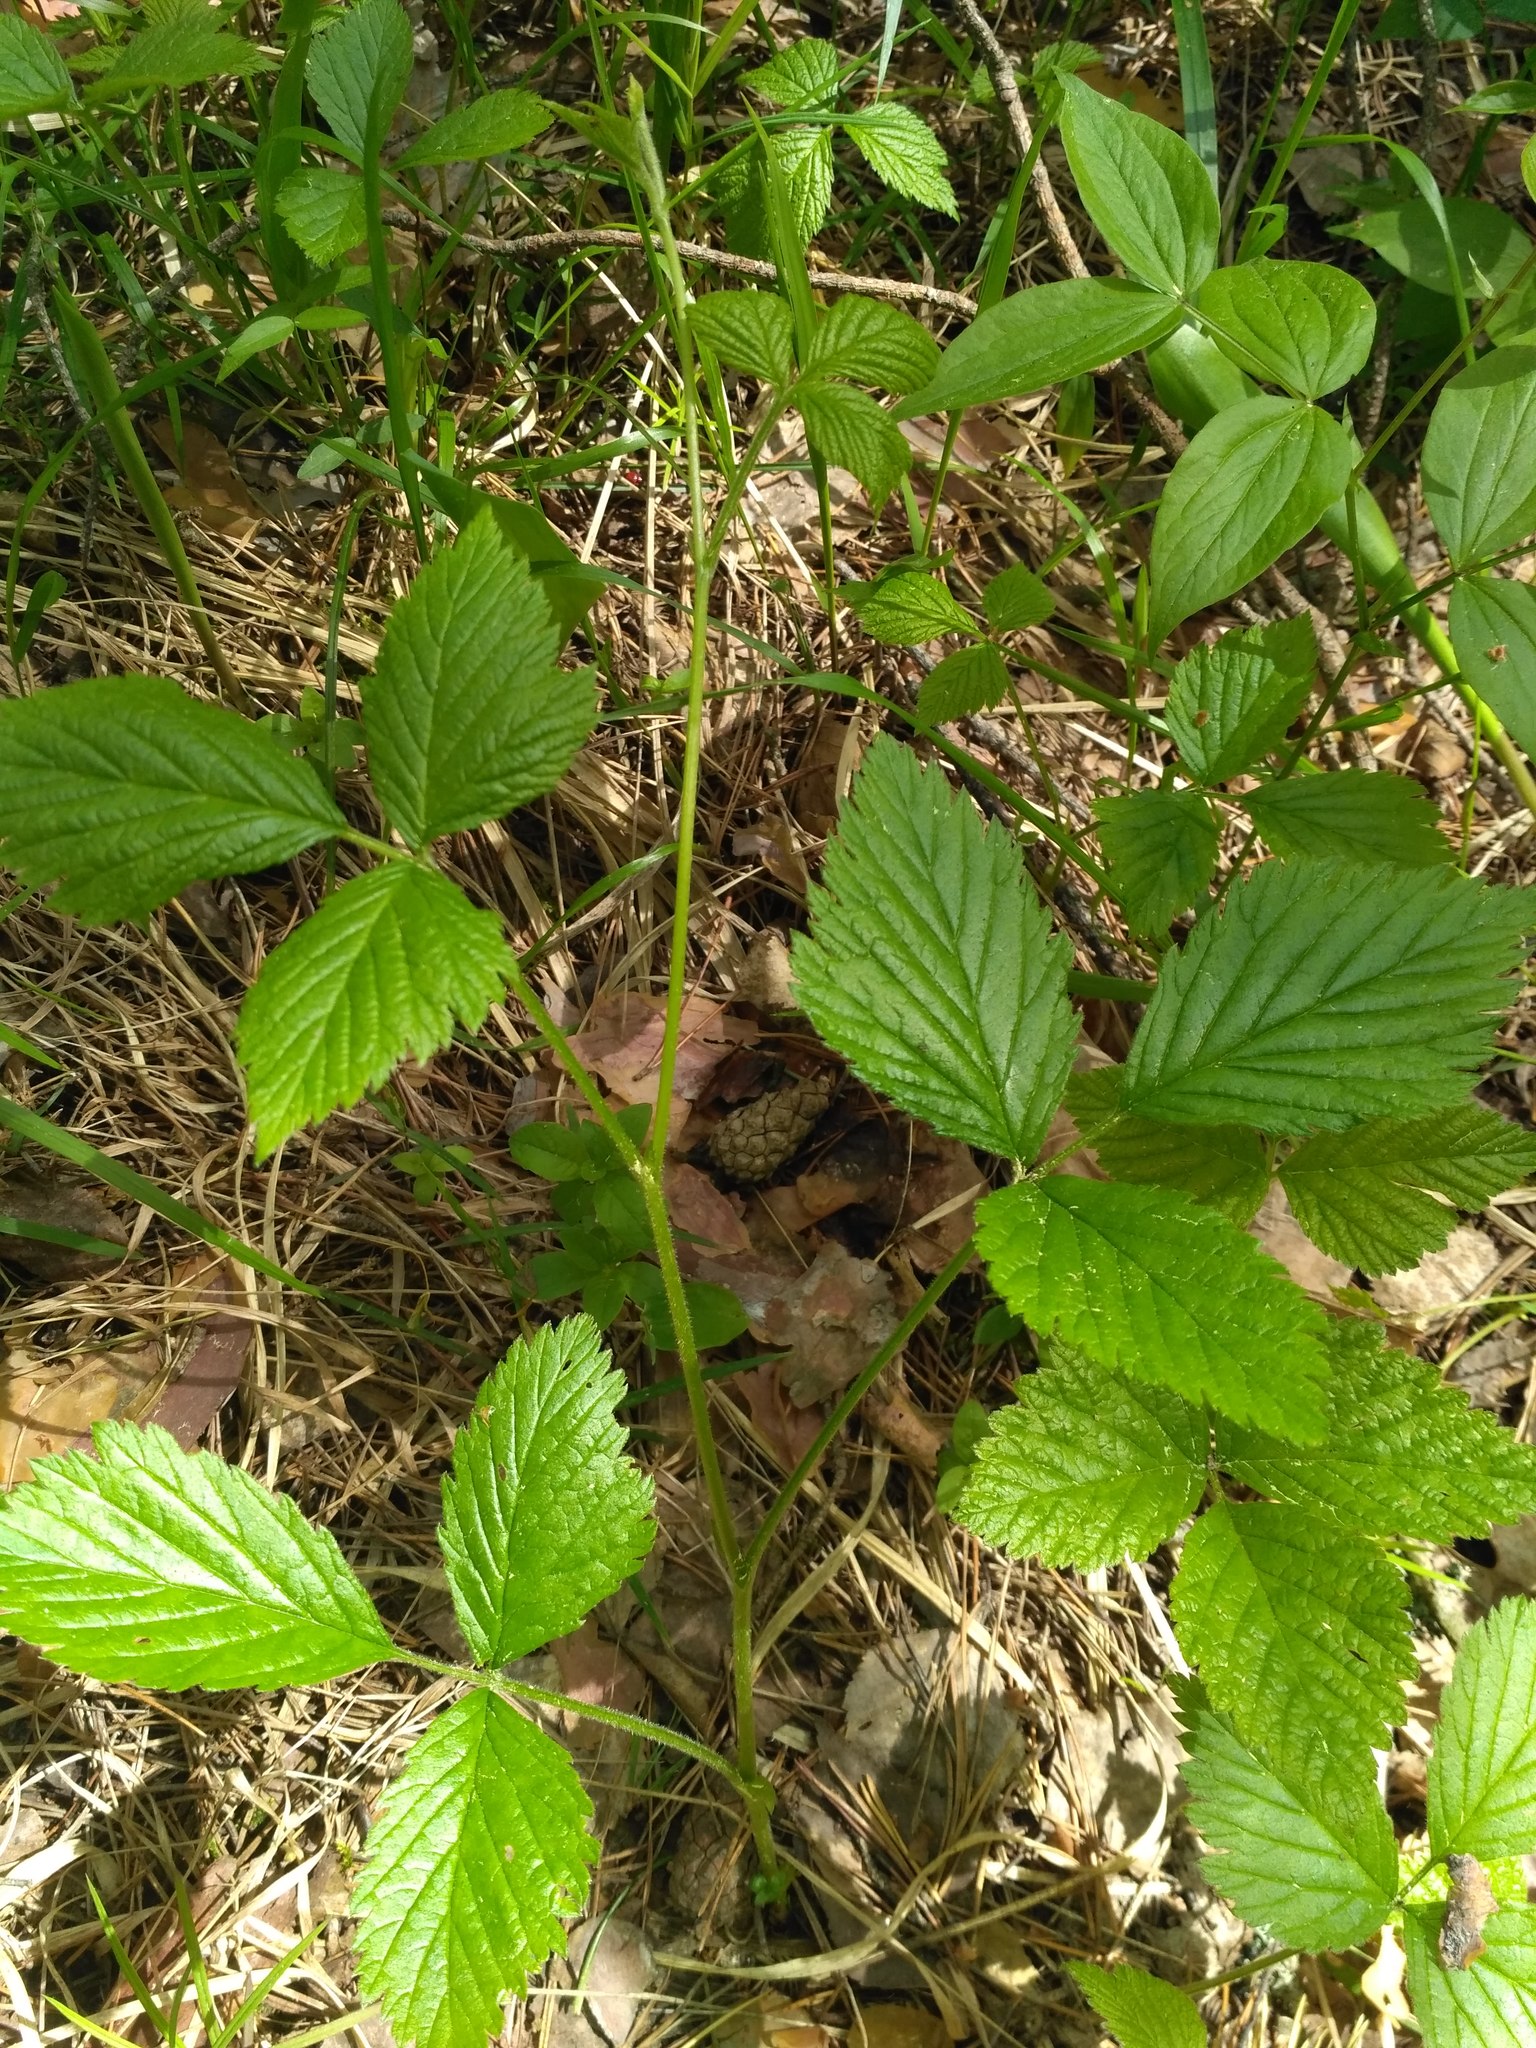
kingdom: Plantae
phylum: Tracheophyta
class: Magnoliopsida
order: Rosales
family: Rosaceae
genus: Rubus
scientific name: Rubus saxatilis
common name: Stone bramble
